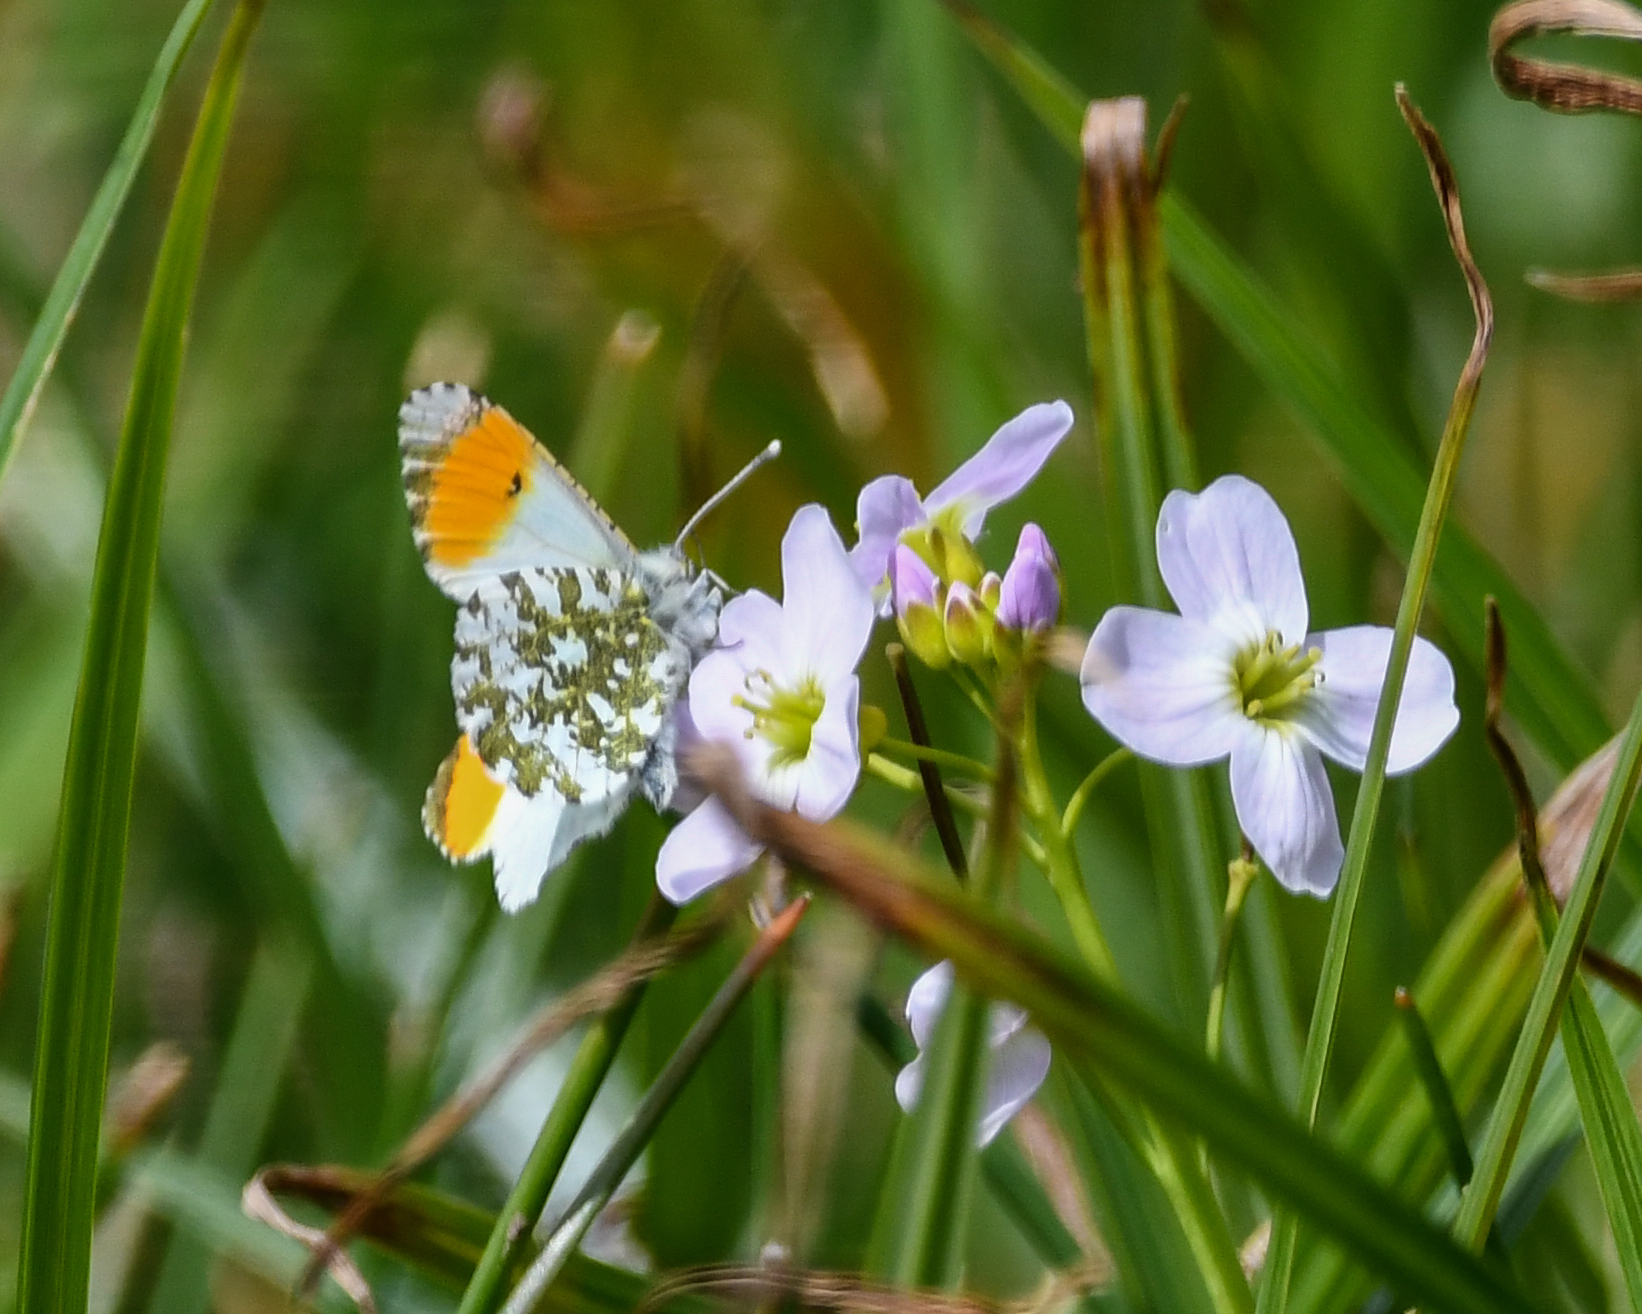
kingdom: Animalia
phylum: Arthropoda
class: Insecta
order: Lepidoptera
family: Pieridae
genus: Anthocharis
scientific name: Anthocharis cardamines
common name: Orange-tip
